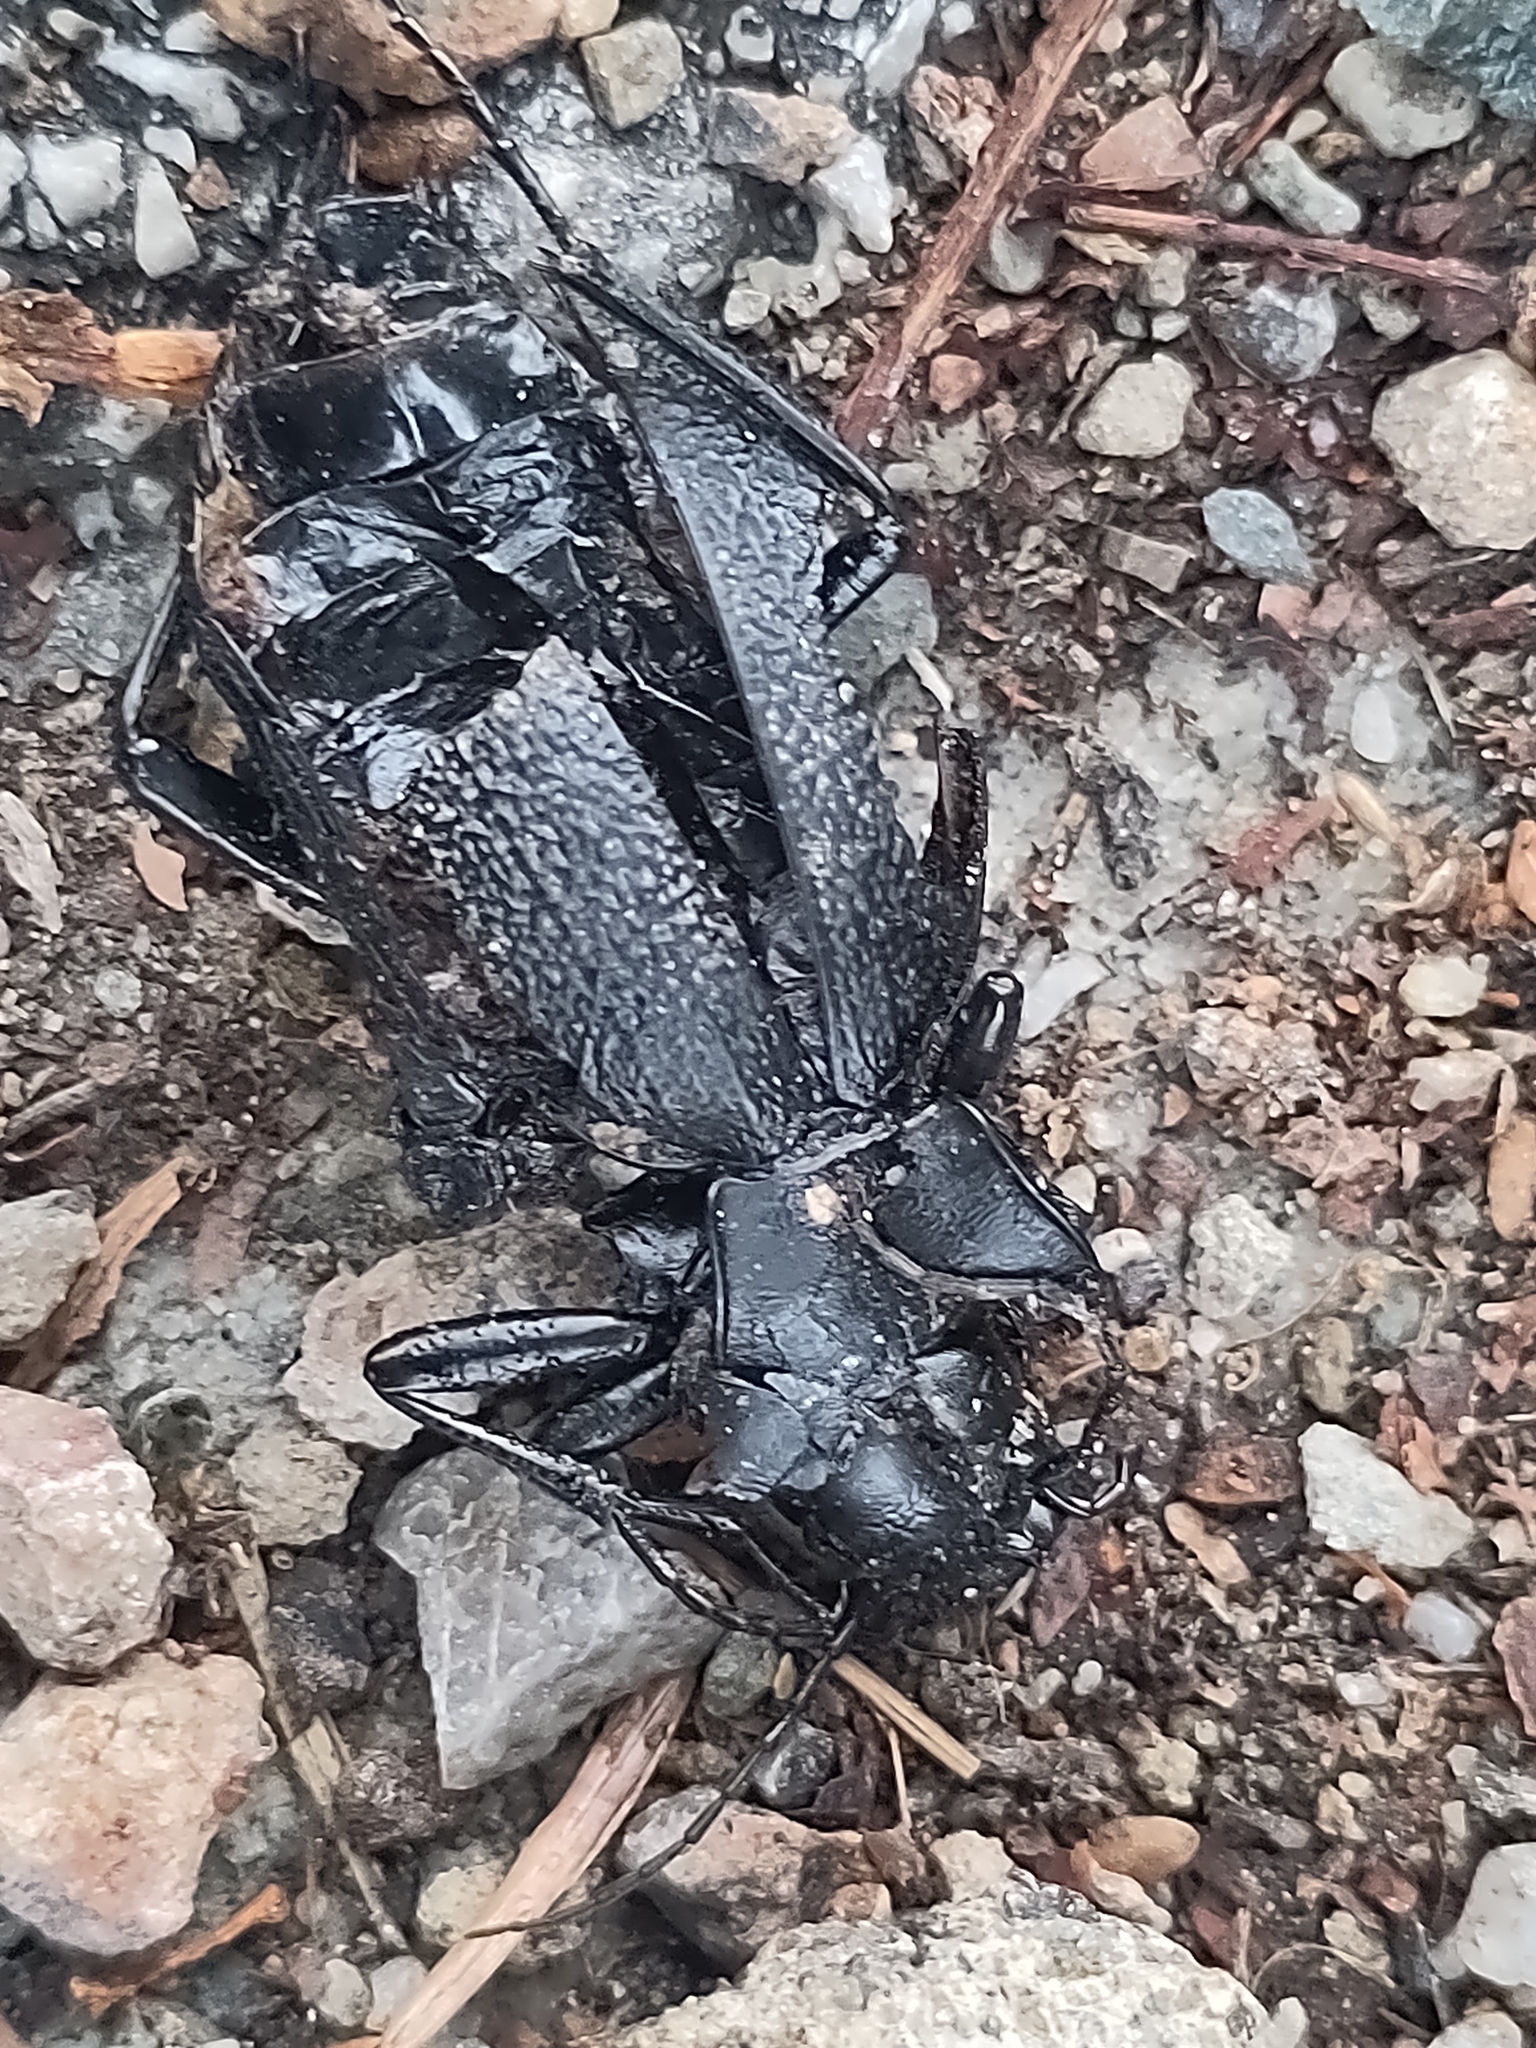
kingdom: Animalia
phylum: Arthropoda
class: Insecta
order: Coleoptera
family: Carabidae
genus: Carabus
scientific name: Carabus coriaceus
